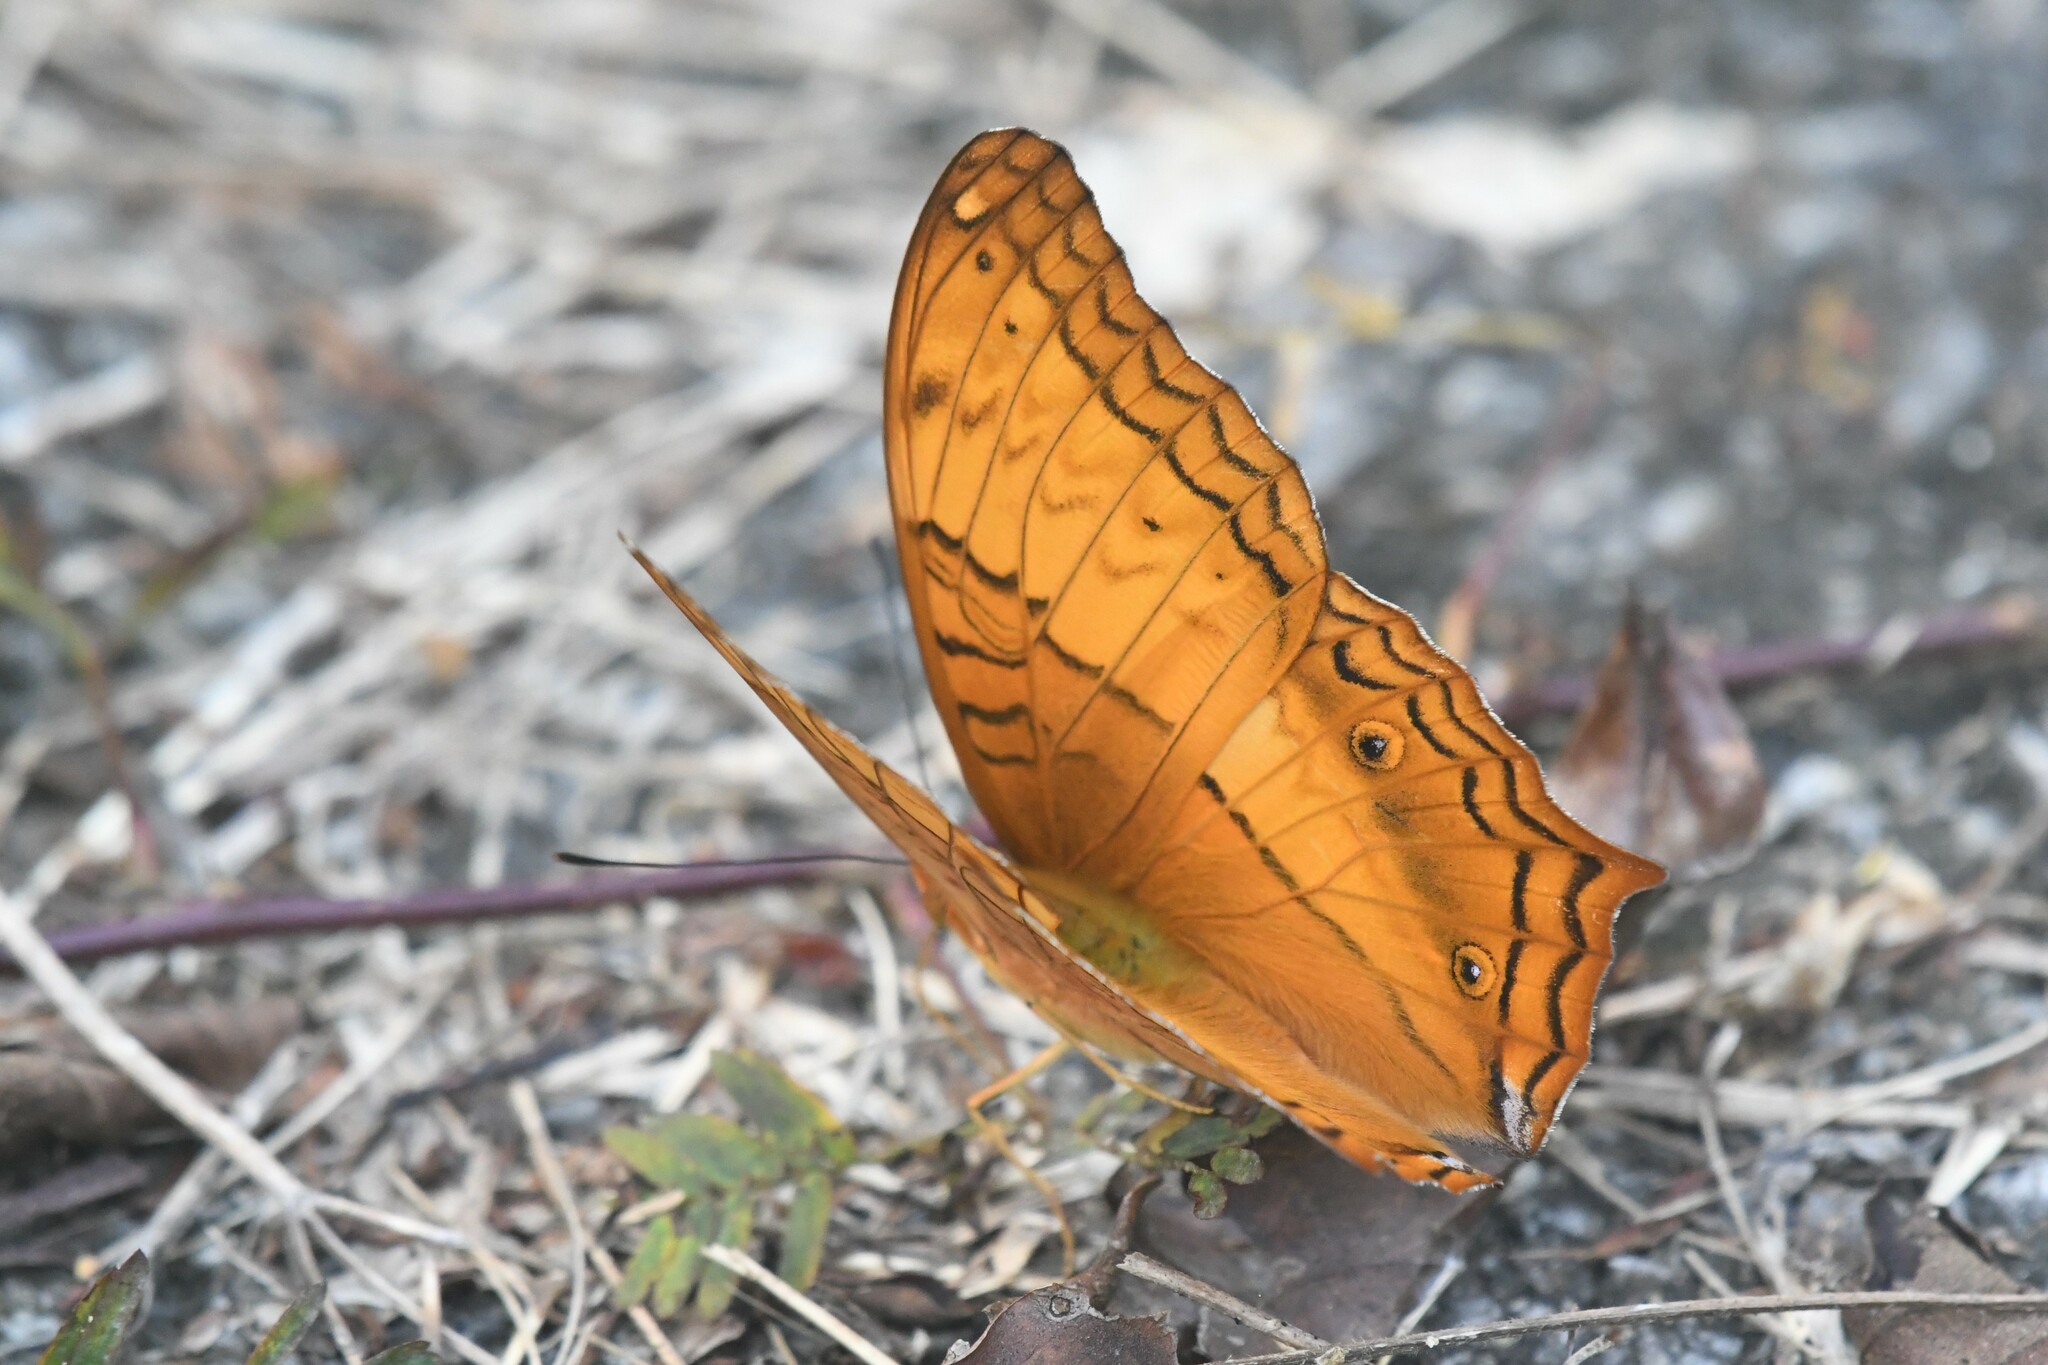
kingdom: Animalia
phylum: Arthropoda
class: Insecta
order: Lepidoptera
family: Nymphalidae
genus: Vindula
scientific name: Vindula erota
